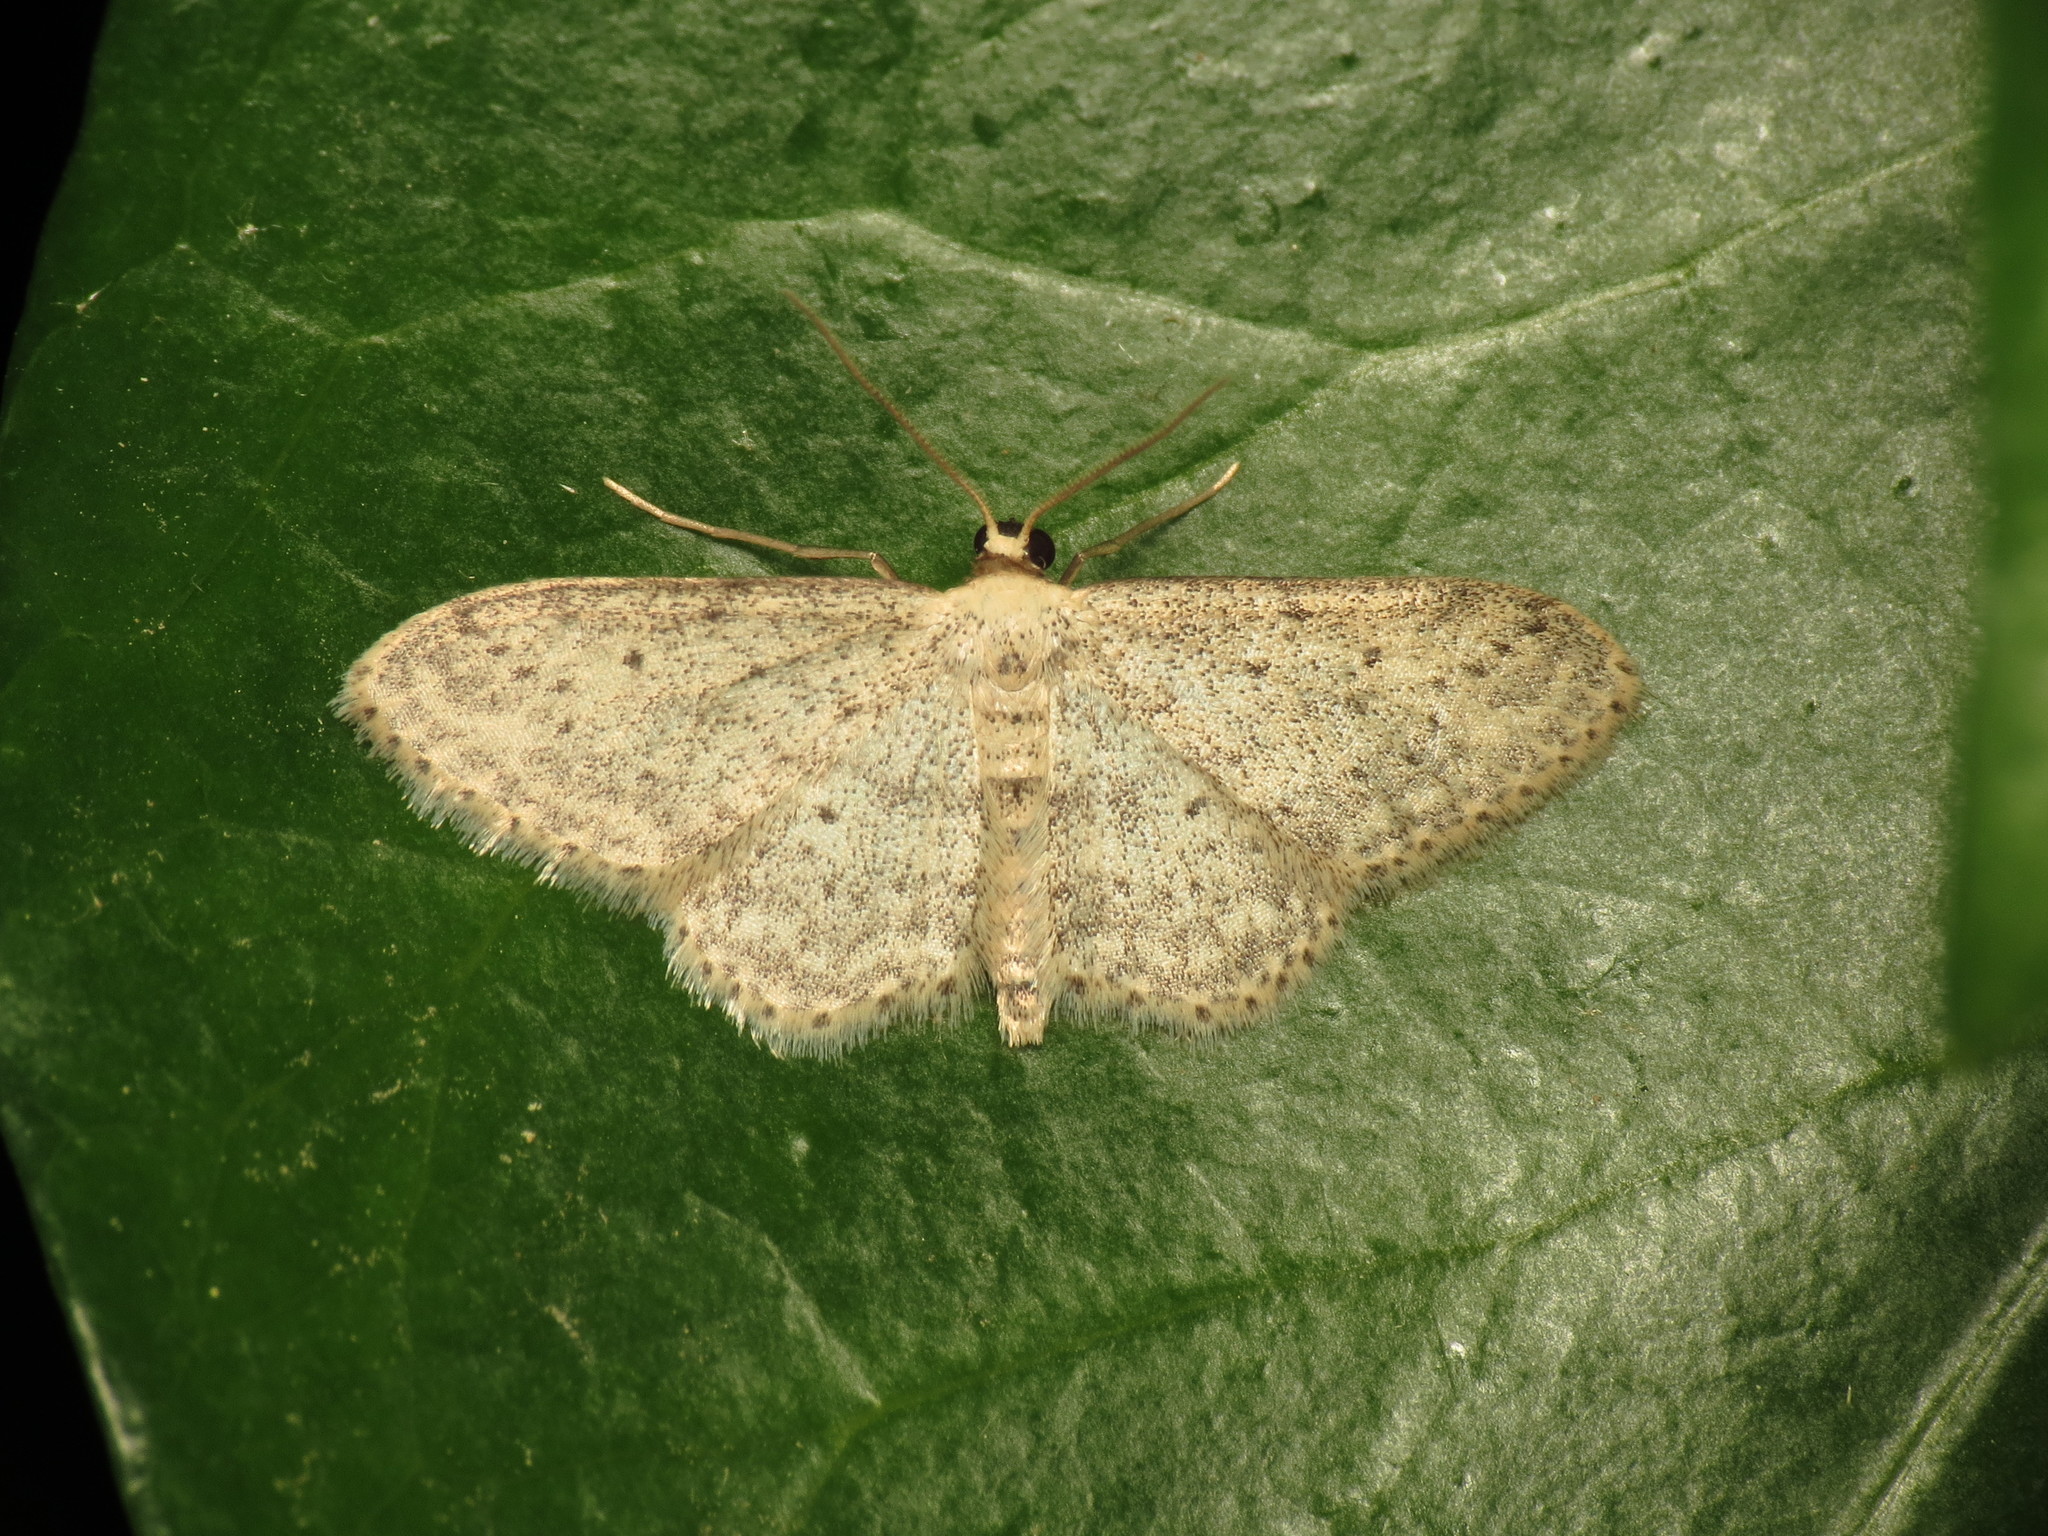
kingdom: Animalia
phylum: Arthropoda
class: Insecta
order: Lepidoptera
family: Geometridae
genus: Idaea
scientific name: Idaea seriata
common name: Small dusty wave
